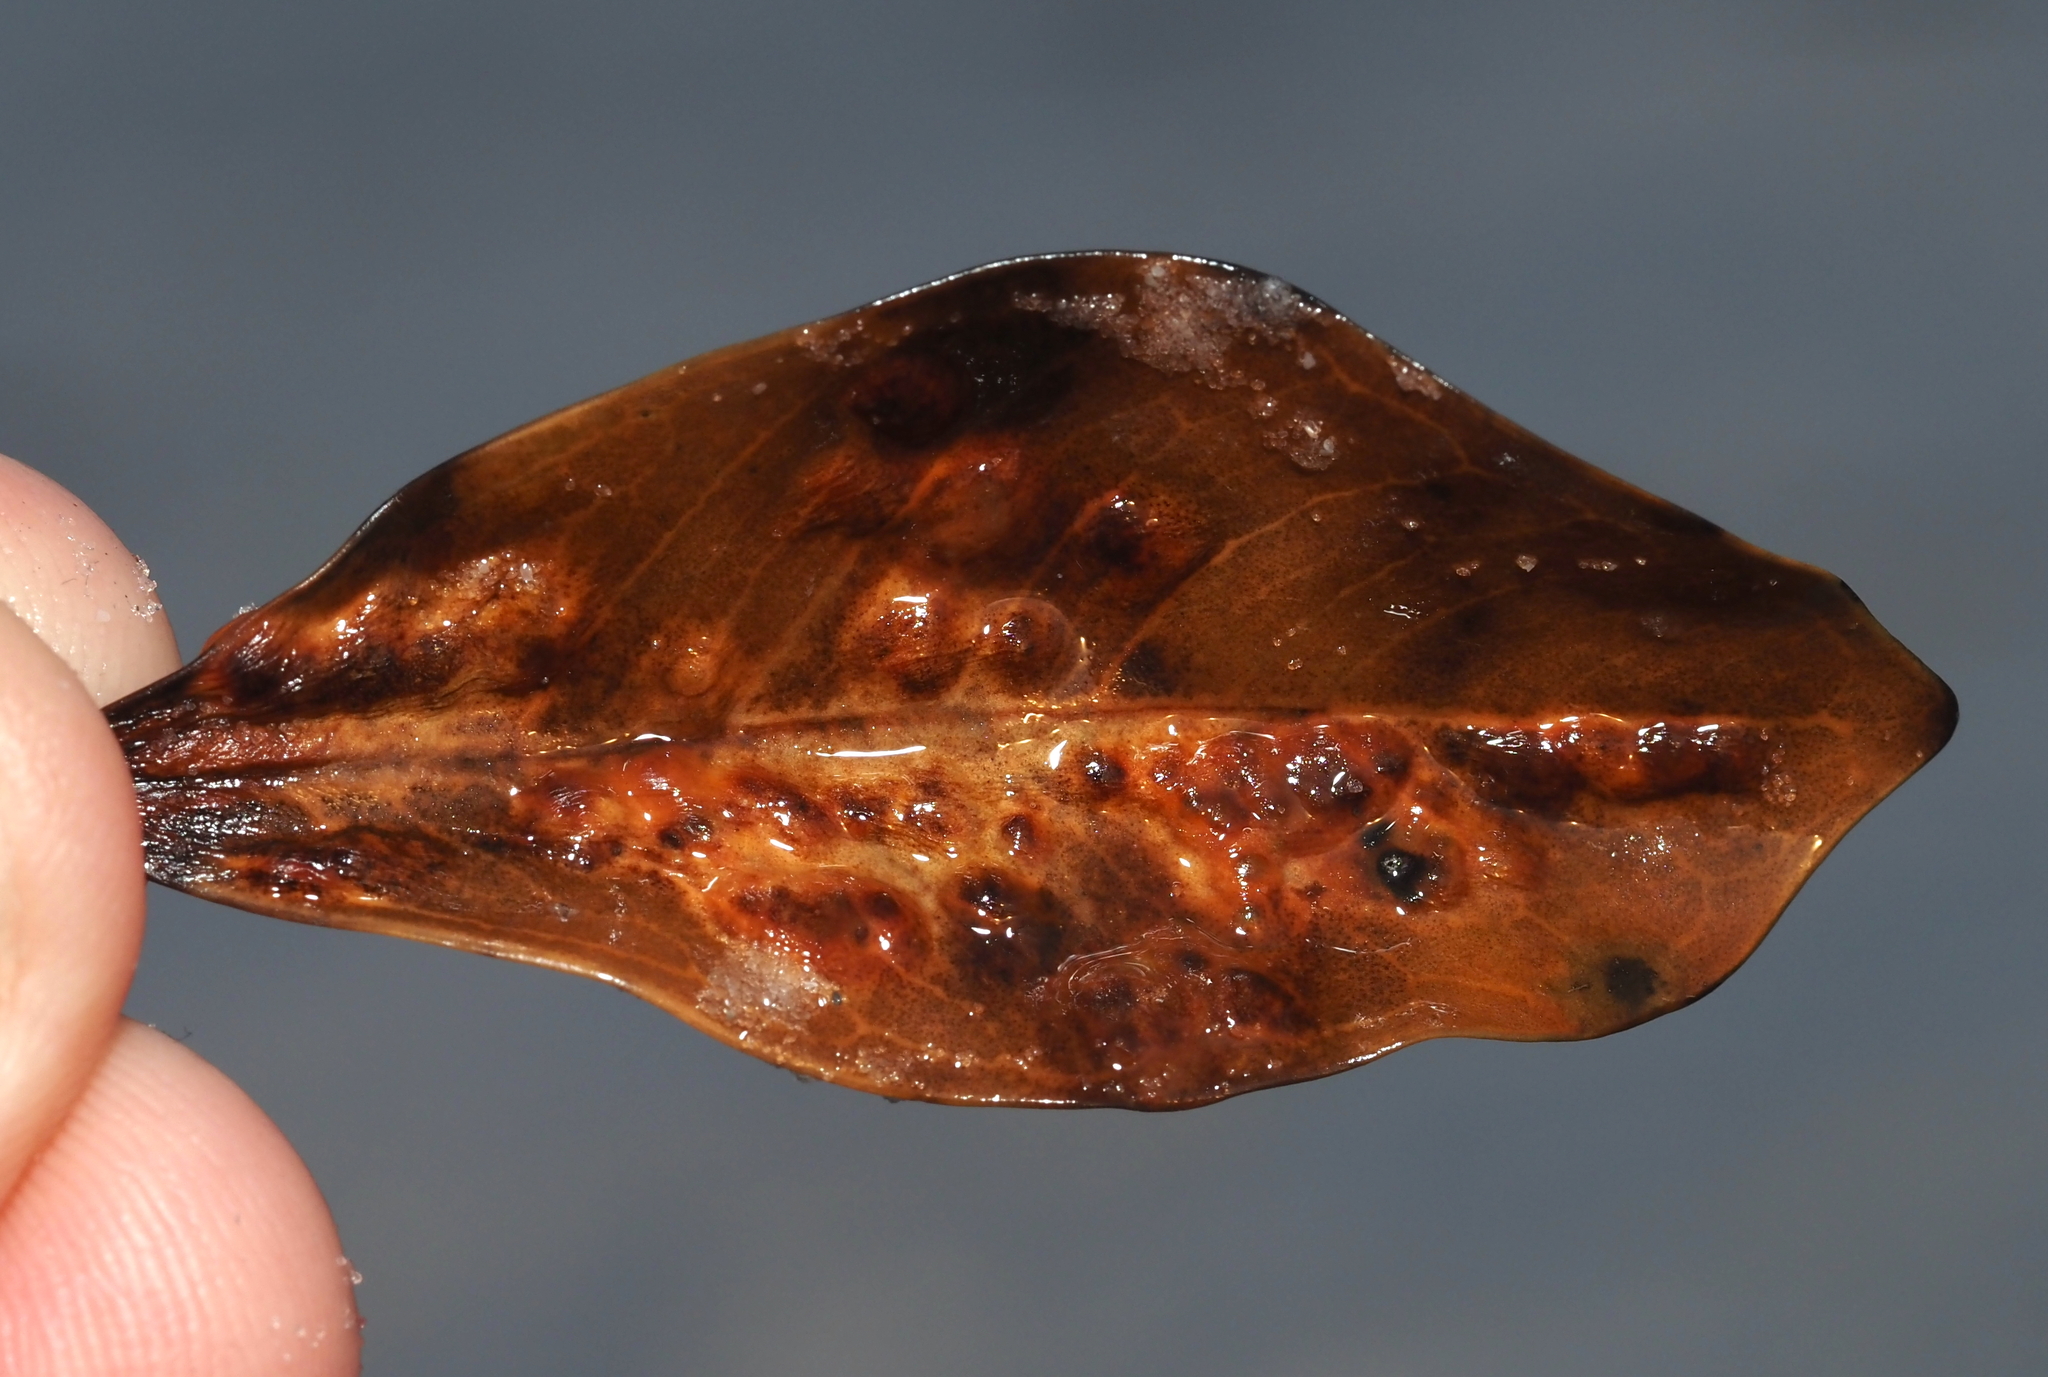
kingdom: Animalia
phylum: Arthropoda
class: Insecta
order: Diptera
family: Cecidomyiidae
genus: Cecidomyia
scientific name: Cecidomyia avicenniae
